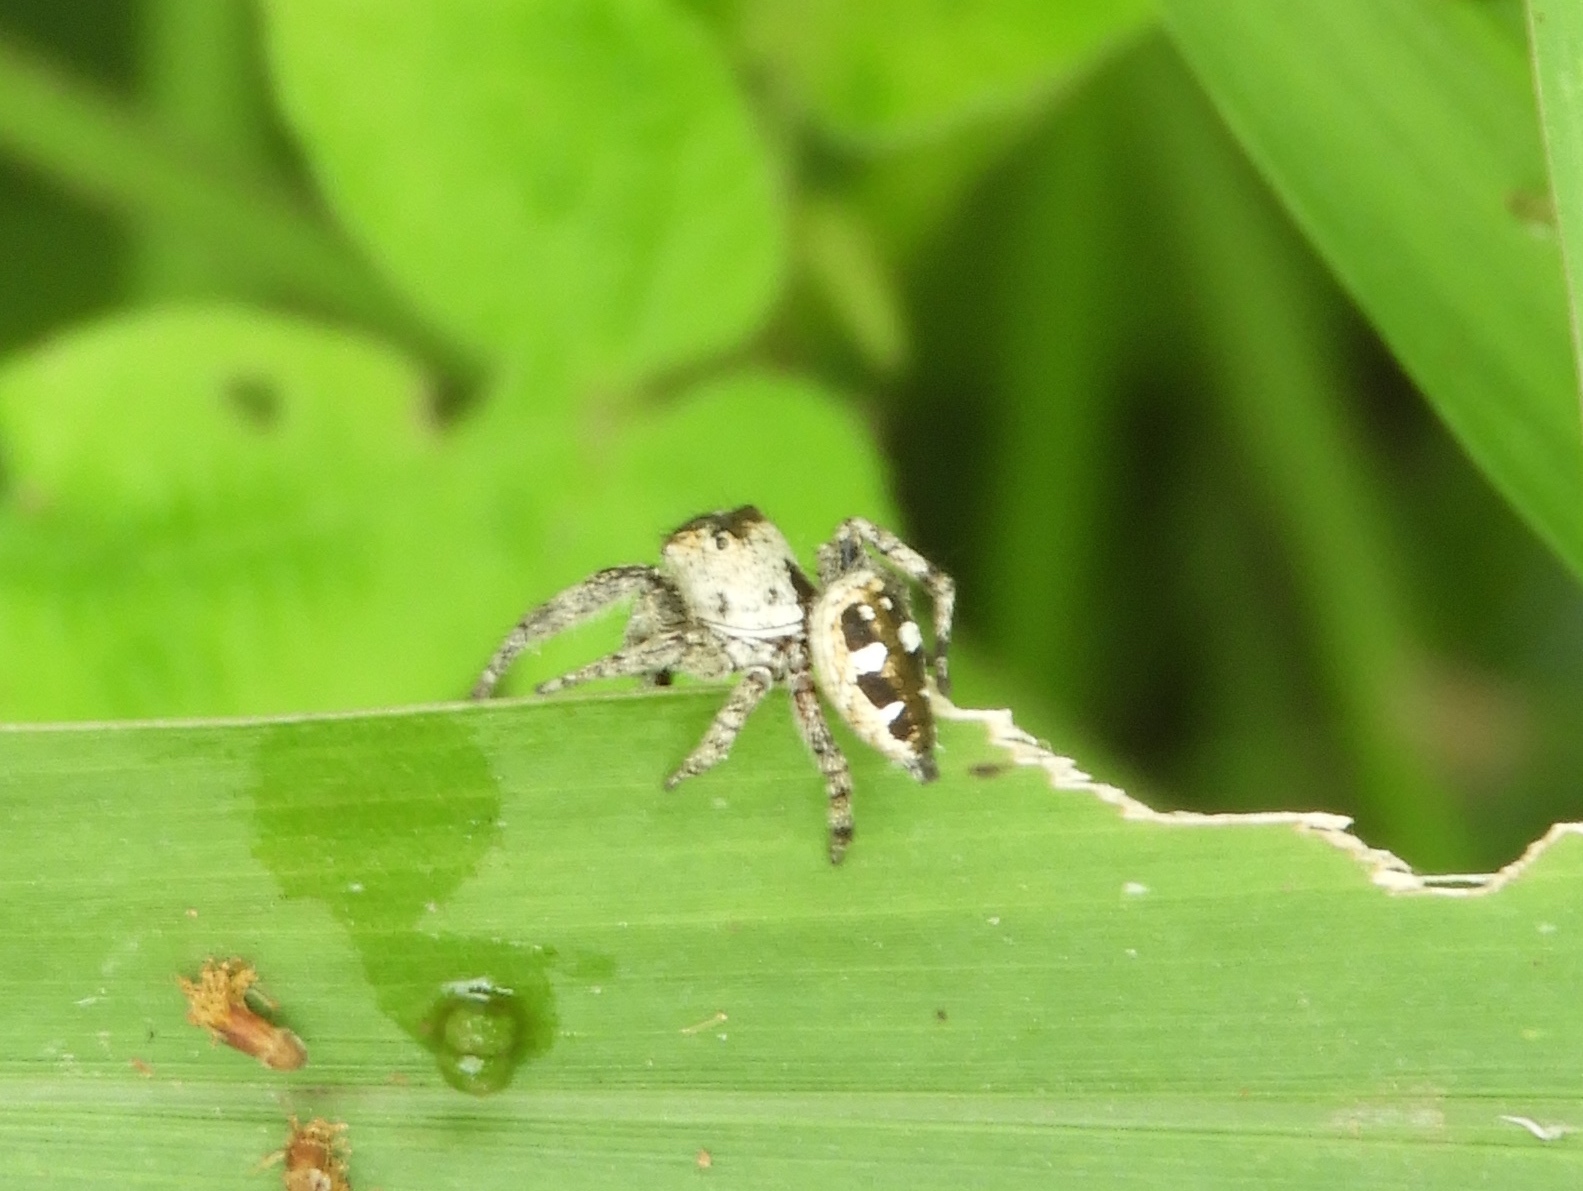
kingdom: Animalia
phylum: Arthropoda
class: Arachnida
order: Araneae
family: Salticidae
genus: Dendryphantes
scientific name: Dendryphantes zygoballoides
